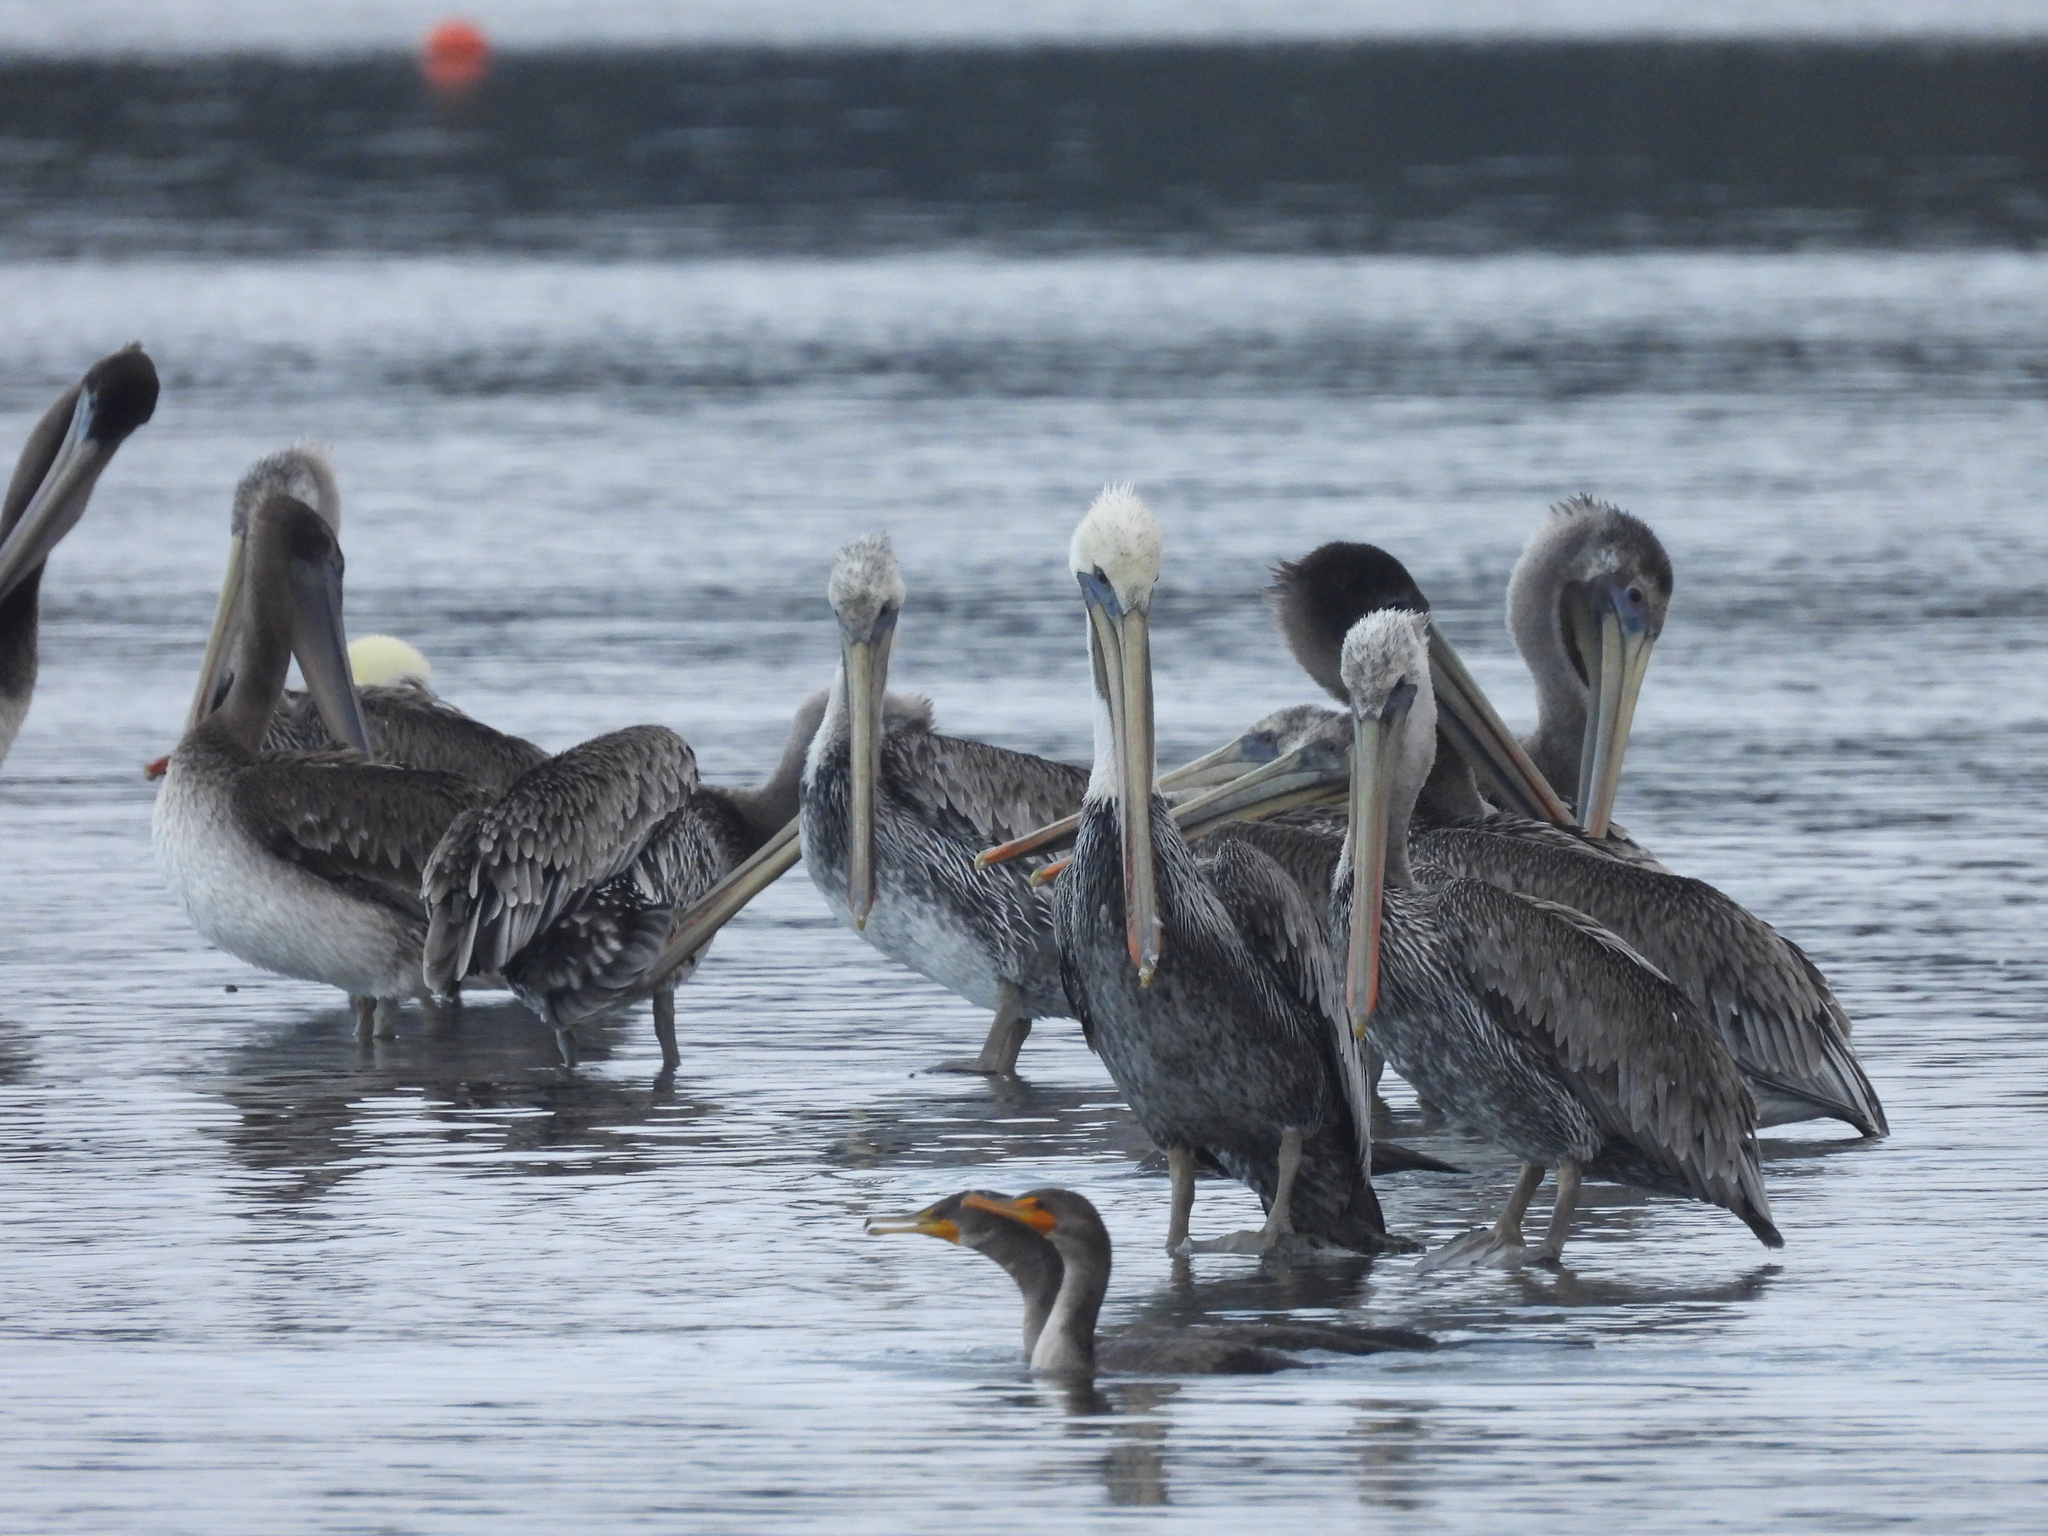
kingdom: Animalia
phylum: Chordata
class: Aves
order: Pelecaniformes
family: Pelecanidae
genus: Pelecanus
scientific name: Pelecanus occidentalis
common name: Brown pelican
